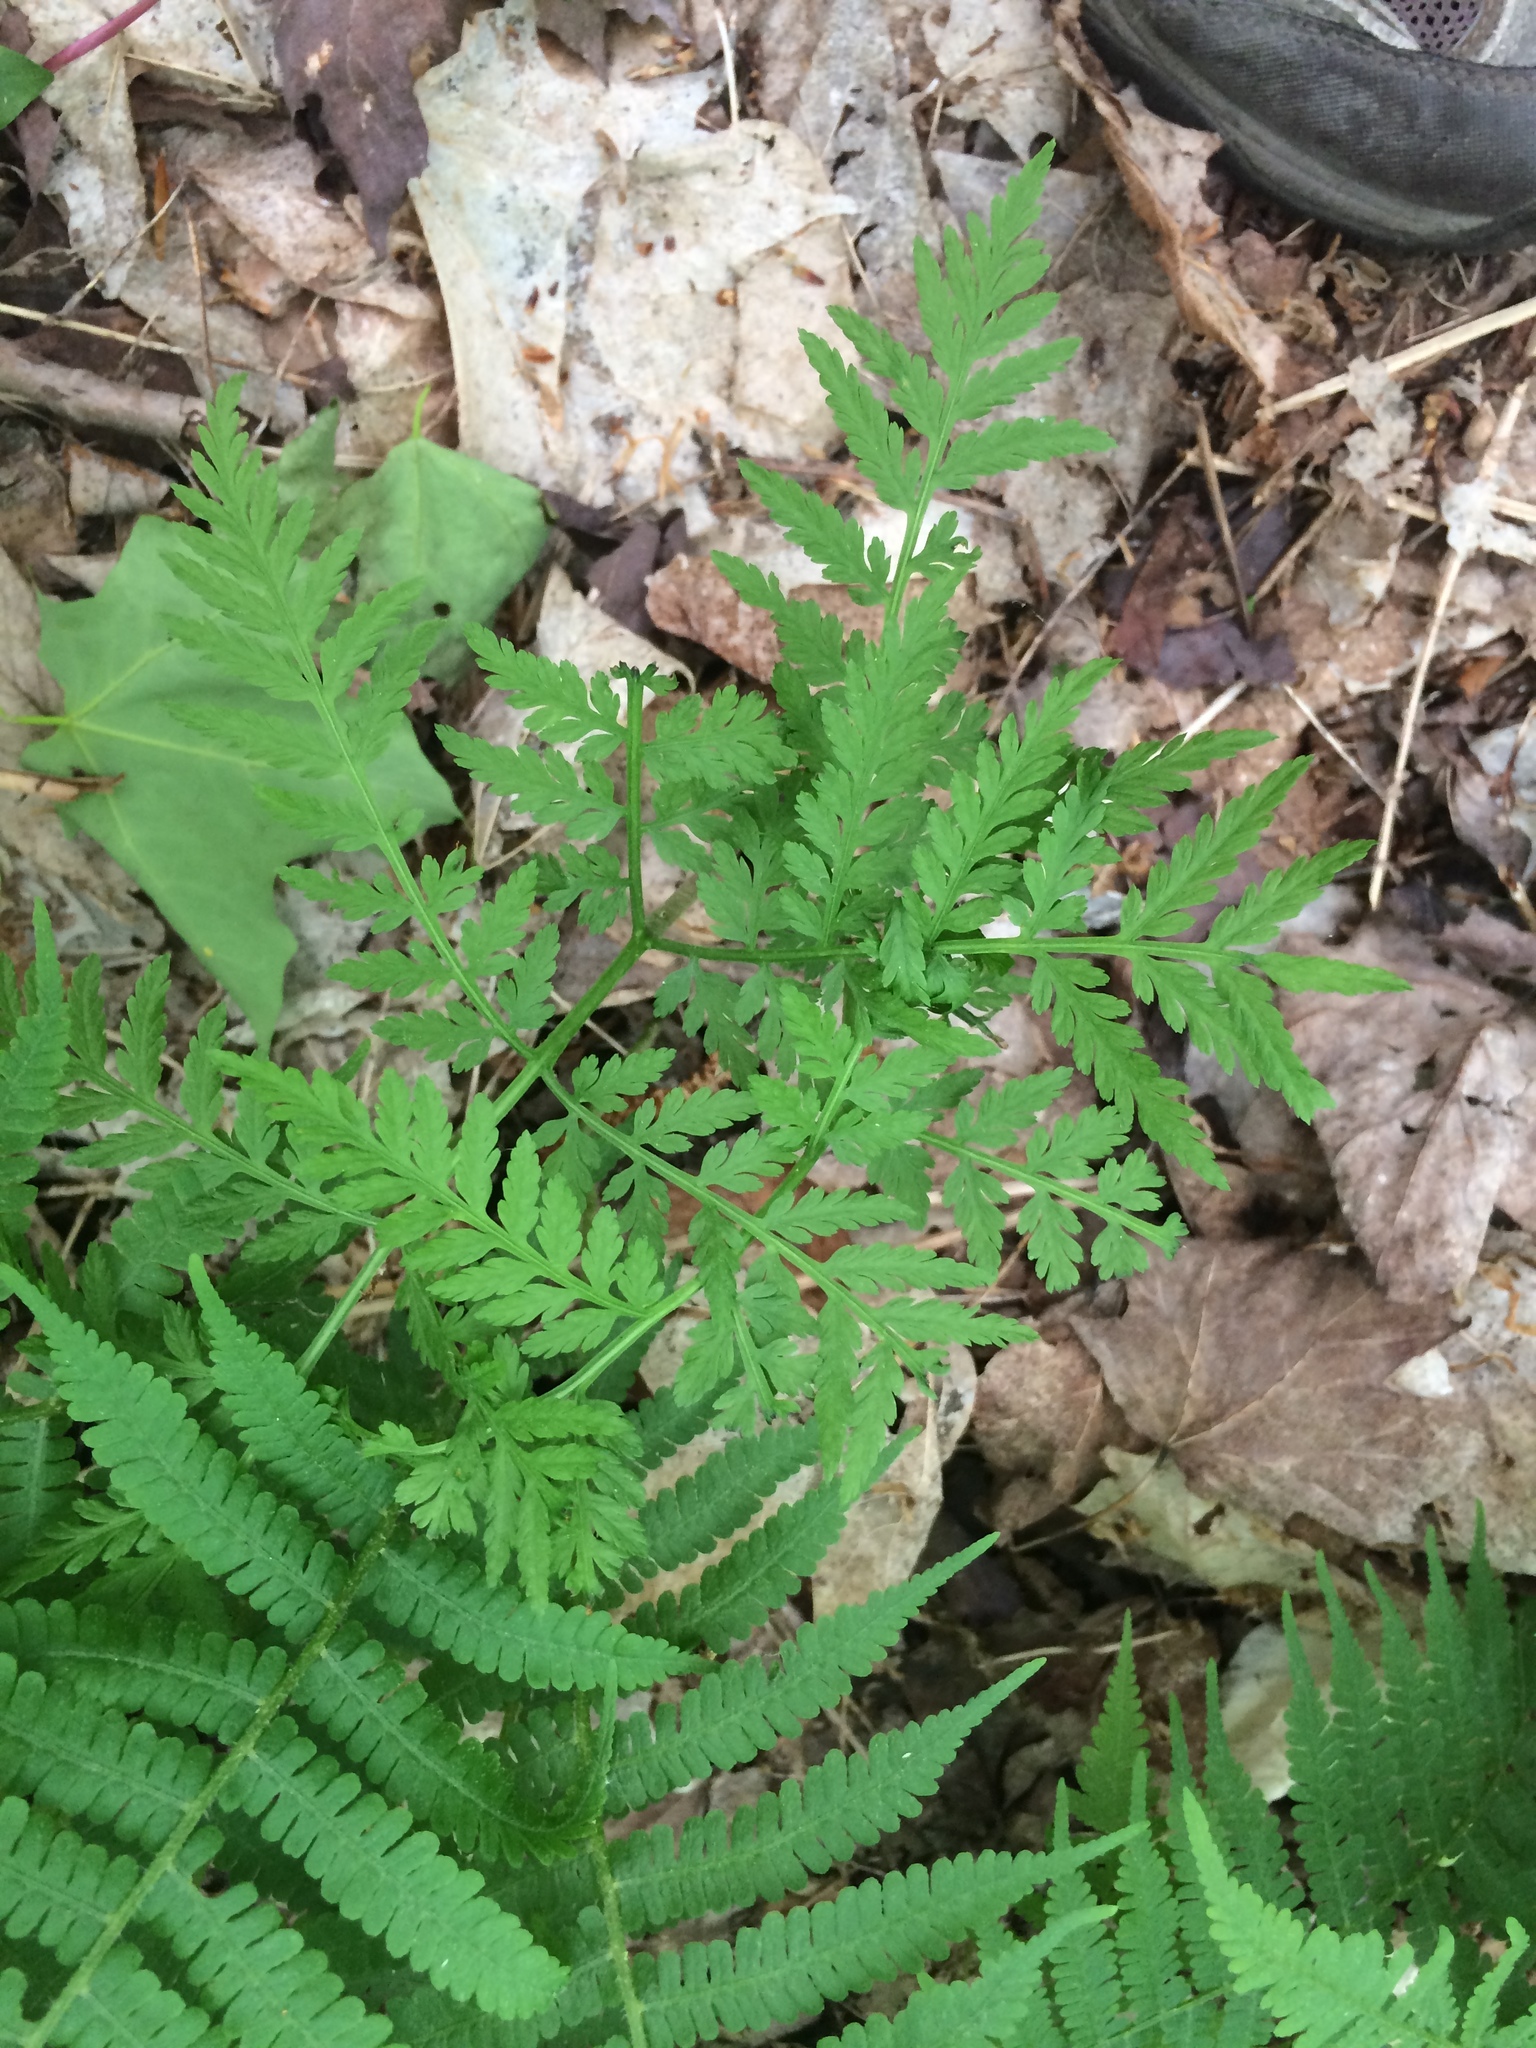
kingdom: Plantae
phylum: Tracheophyta
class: Polypodiopsida
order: Ophioglossales
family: Ophioglossaceae
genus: Botrypus
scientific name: Botrypus virginianus
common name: Common grapefern
